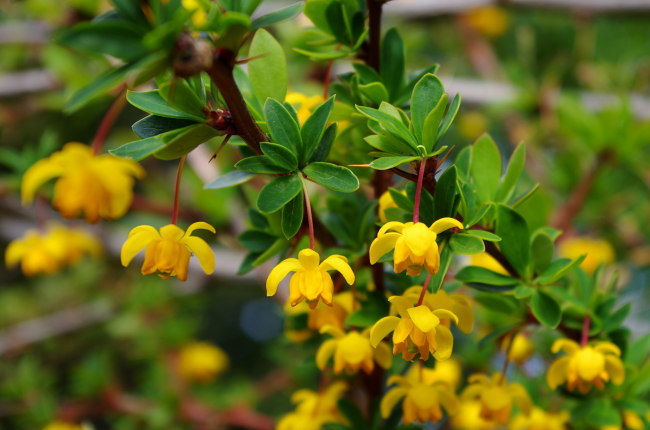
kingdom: Plantae
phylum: Tracheophyta
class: Magnoliopsida
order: Ranunculales
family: Berberidaceae
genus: Berberis
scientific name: Berberis microphylla
